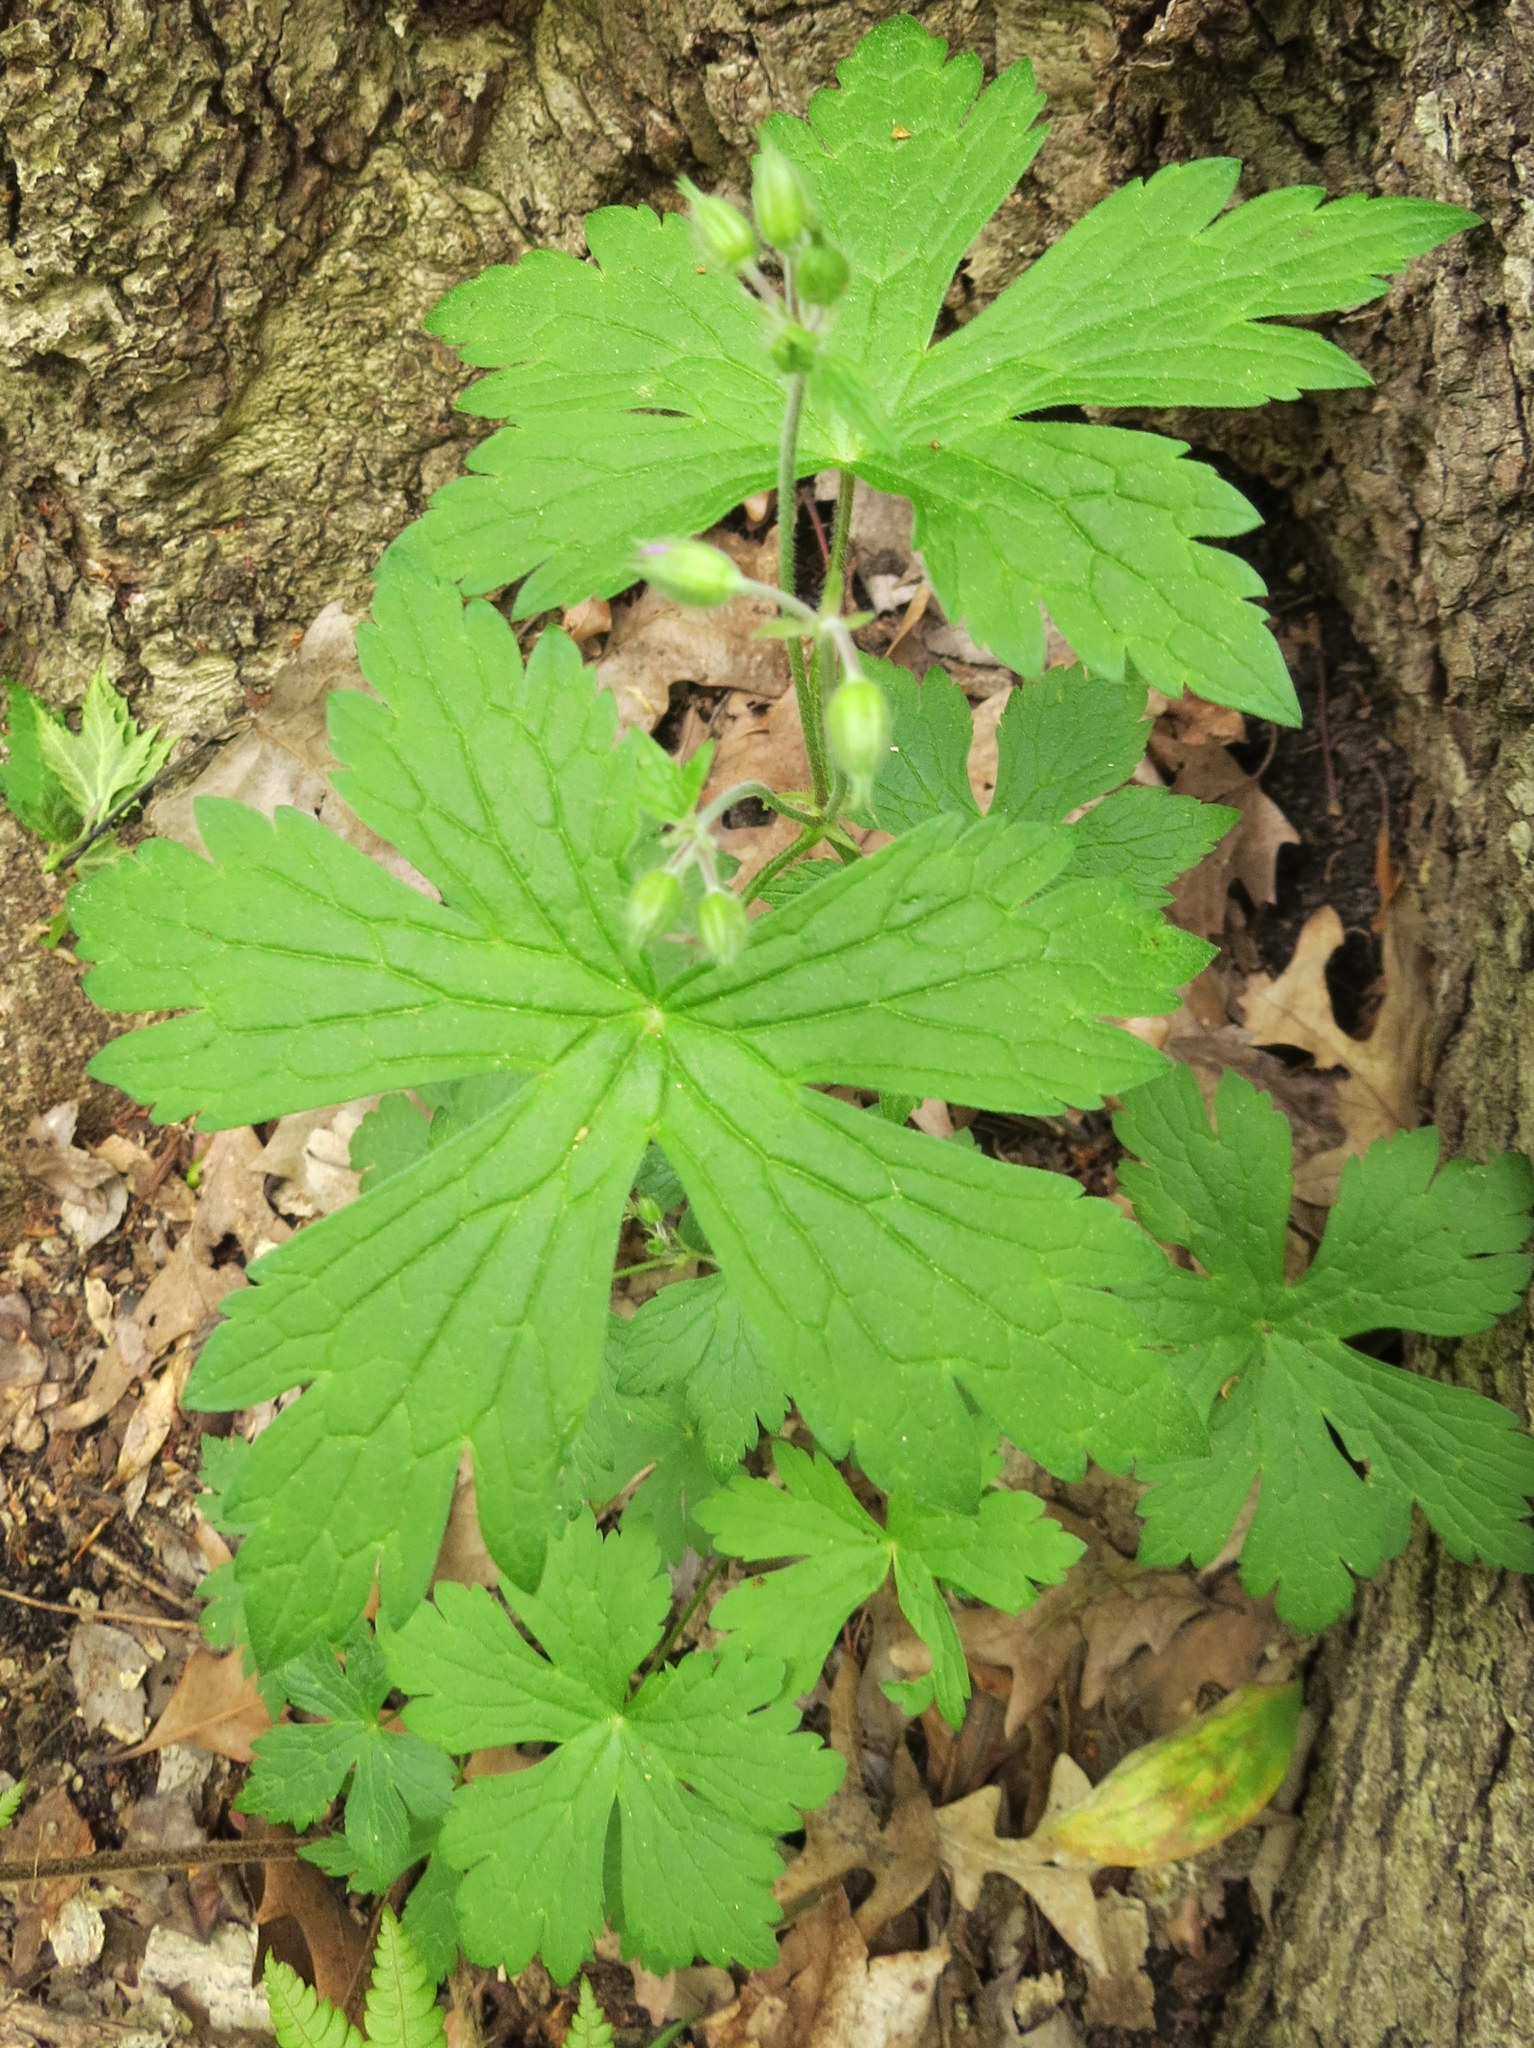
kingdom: Plantae
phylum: Tracheophyta
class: Magnoliopsida
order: Geraniales
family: Geraniaceae
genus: Geranium
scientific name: Geranium maculatum
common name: Spotted geranium
